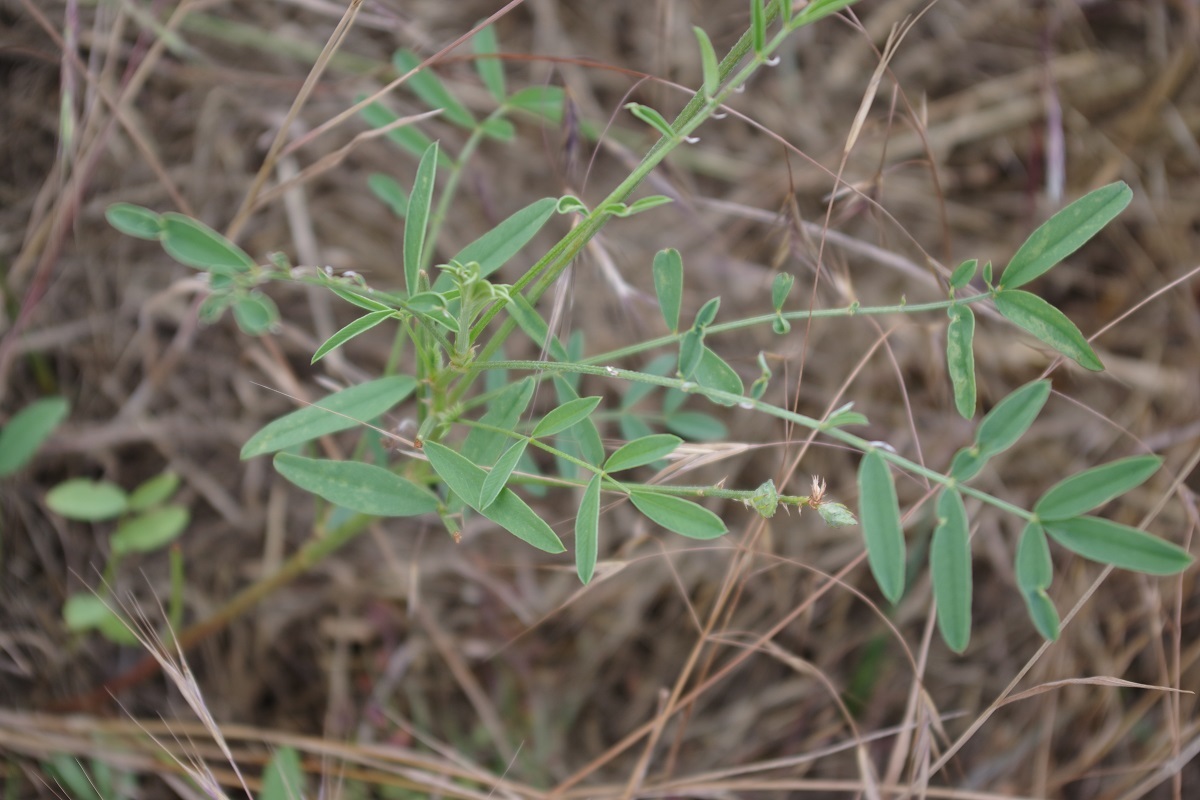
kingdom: Plantae
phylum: Tracheophyta
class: Magnoliopsida
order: Fabales
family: Fabaceae
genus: Onobrychis
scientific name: Onobrychis viciifolia
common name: Sainfoin
